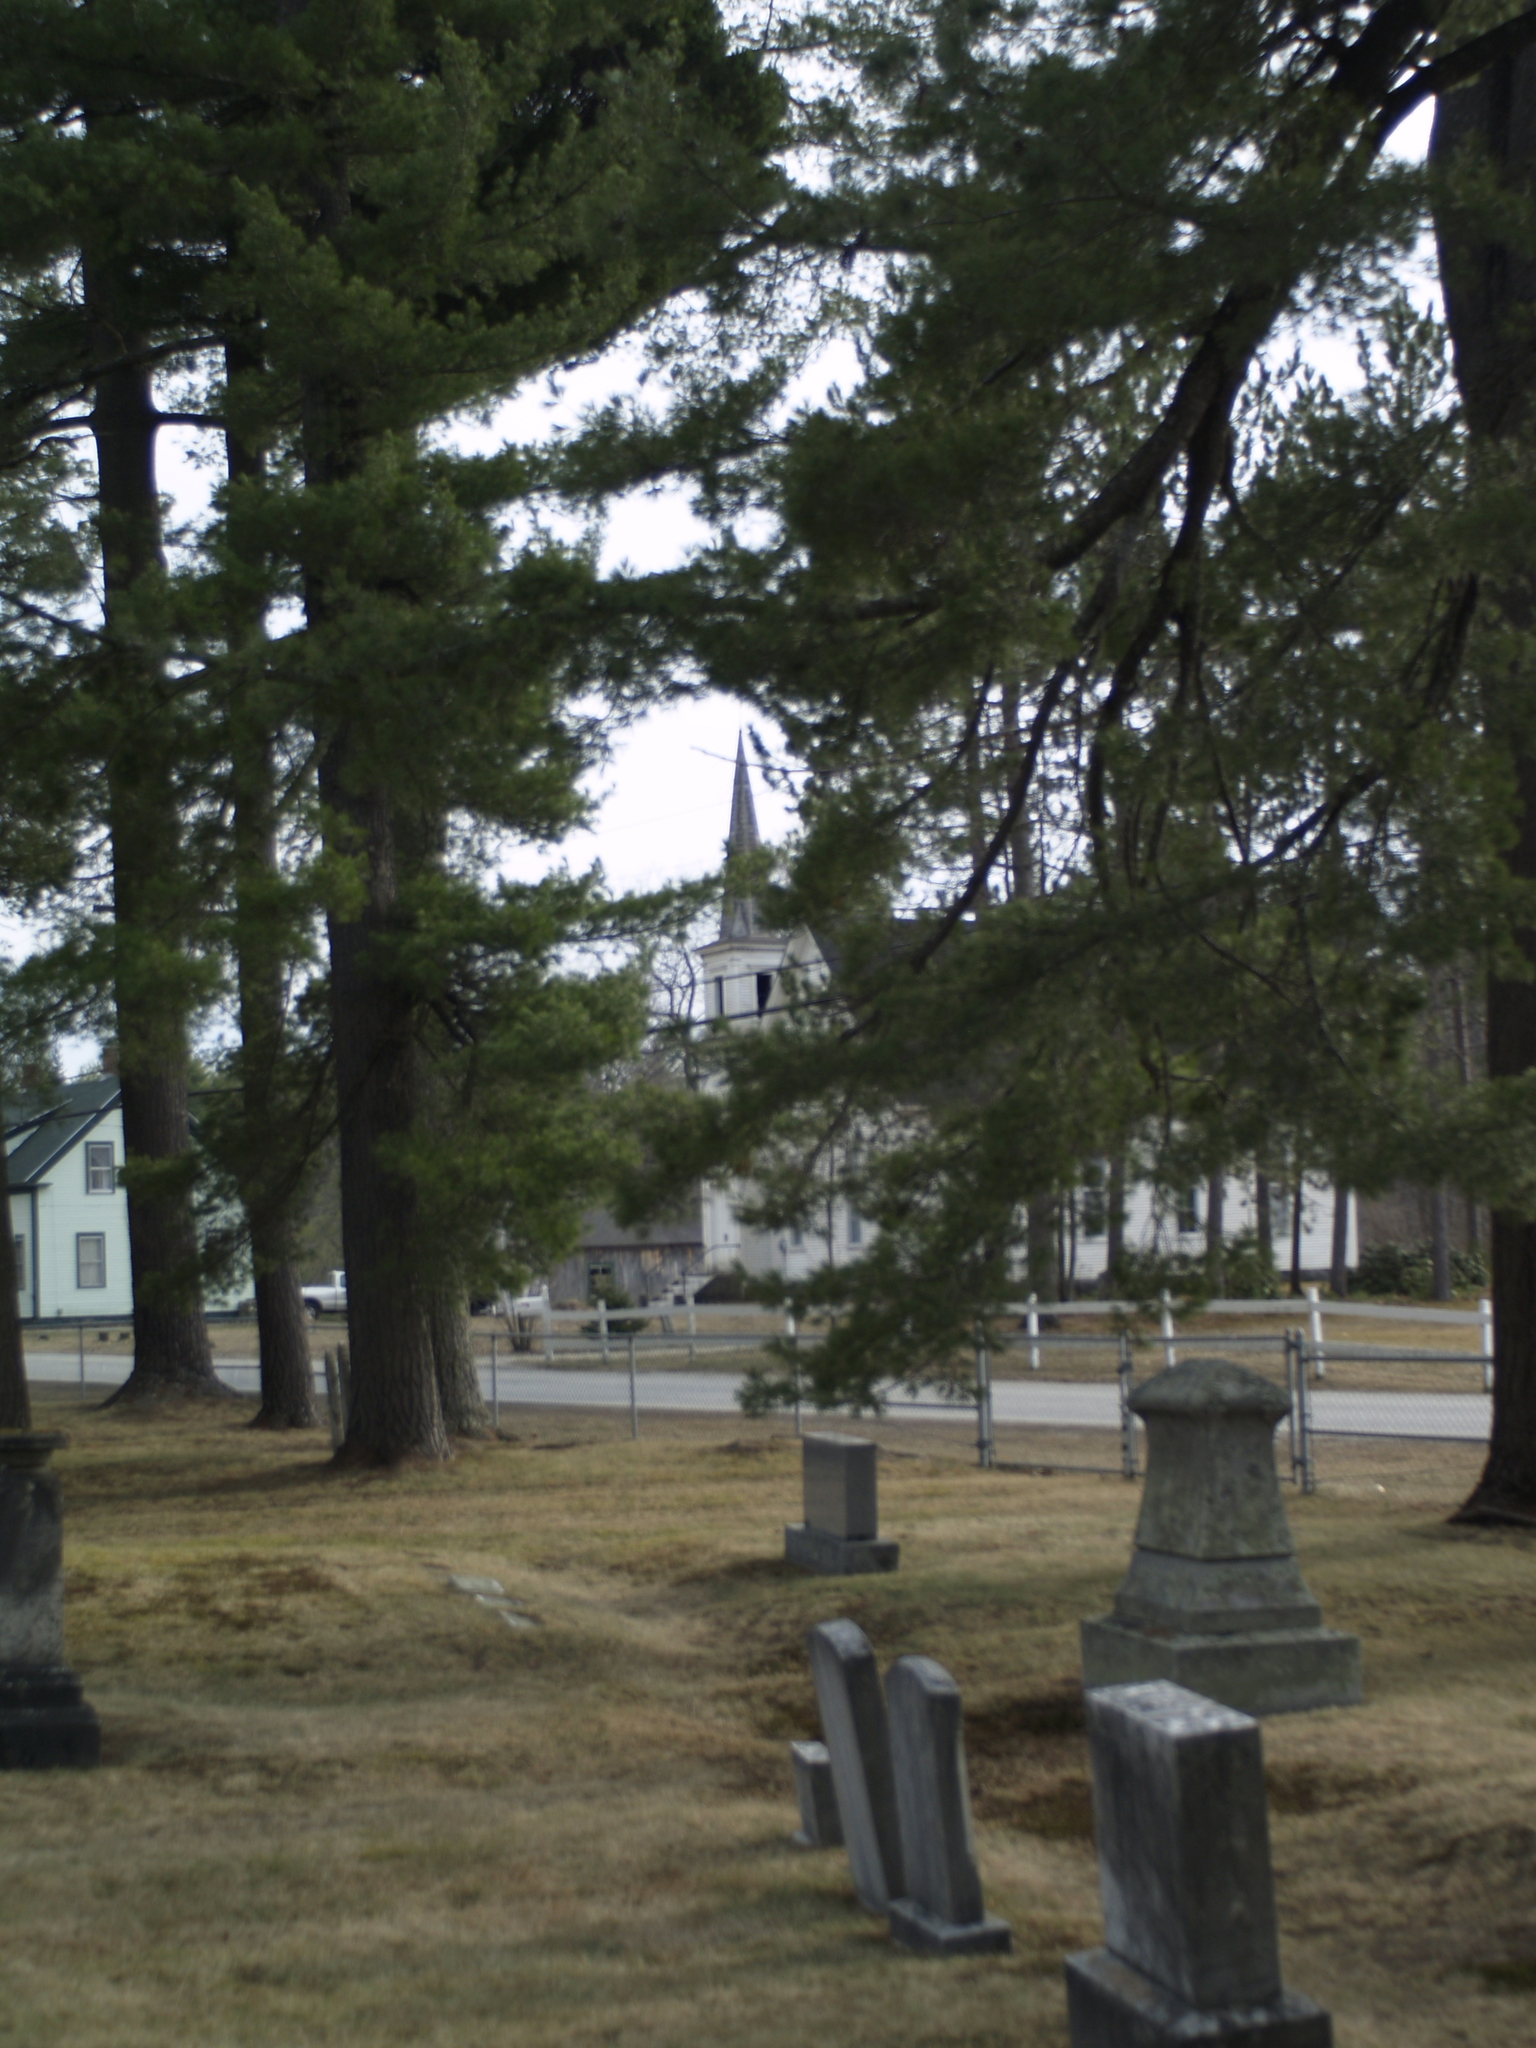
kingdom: Plantae
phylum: Tracheophyta
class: Pinopsida
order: Pinales
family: Pinaceae
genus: Pinus
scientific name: Pinus strobus
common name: Weymouth pine
